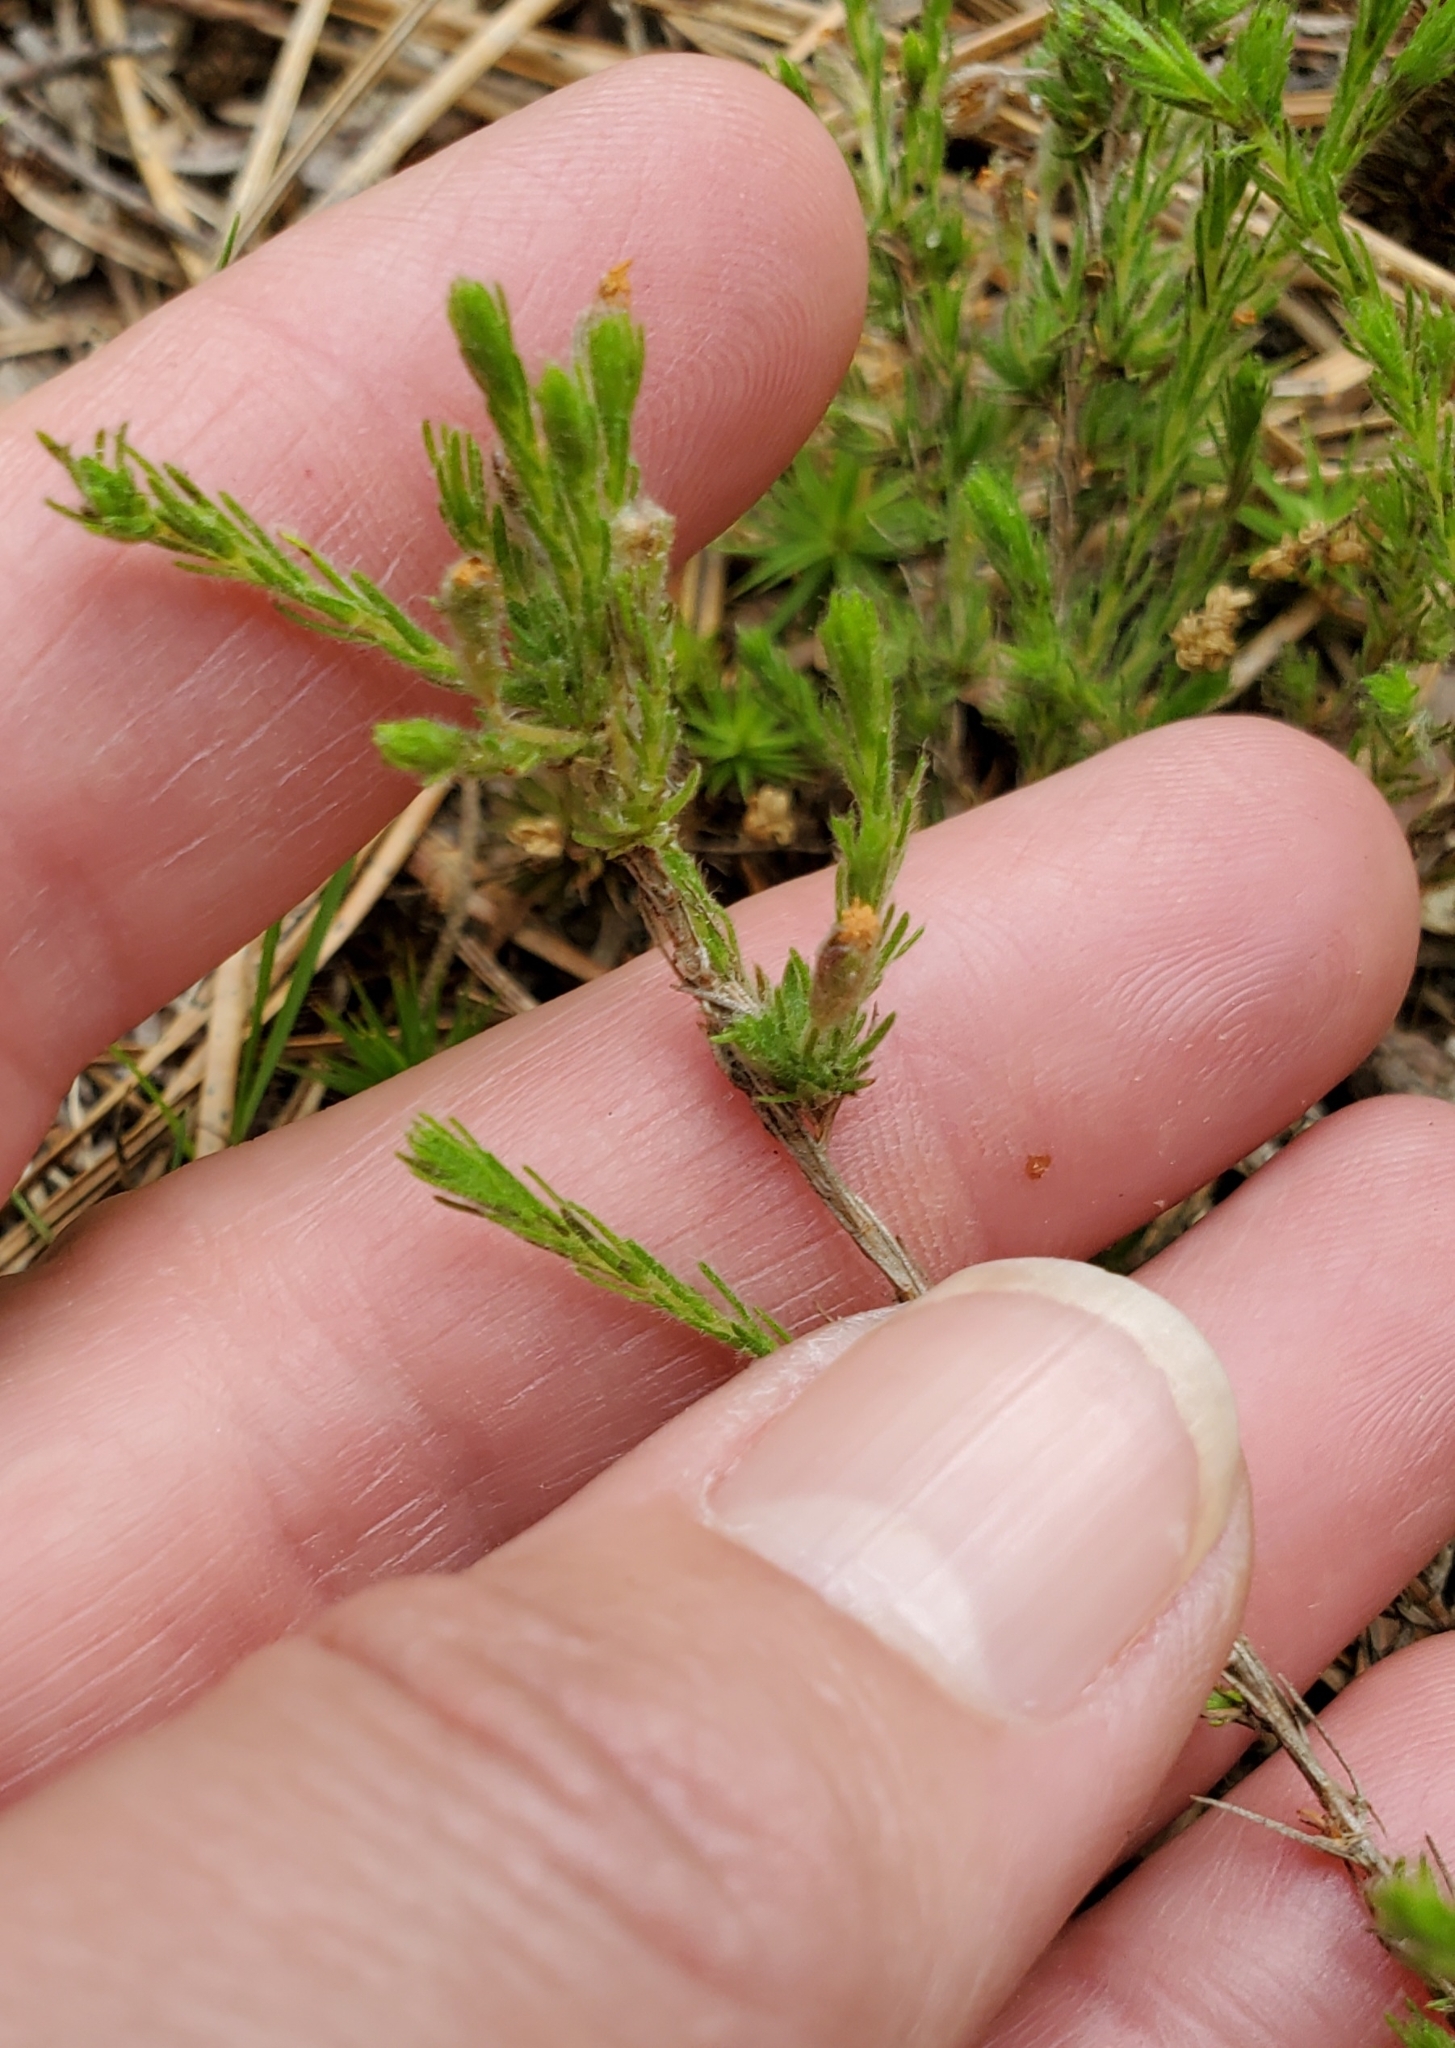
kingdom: Plantae
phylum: Tracheophyta
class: Magnoliopsida
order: Malvales
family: Cistaceae
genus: Hudsonia
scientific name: Hudsonia ericoides
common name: Golden-heather
